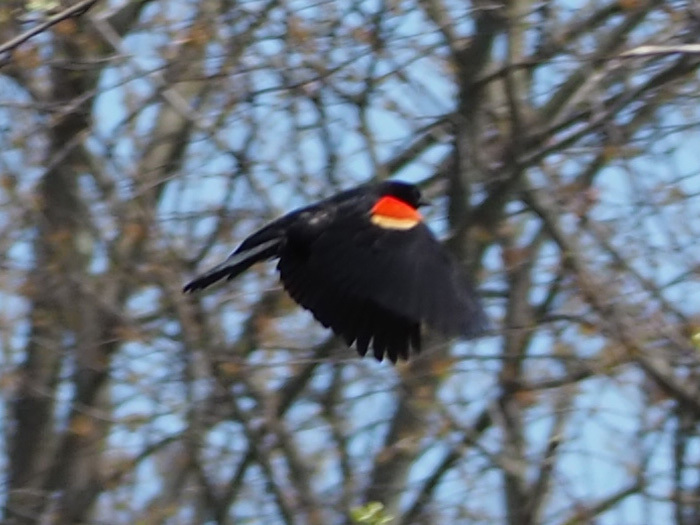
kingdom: Animalia
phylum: Chordata
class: Aves
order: Passeriformes
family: Icteridae
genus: Agelaius
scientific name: Agelaius phoeniceus
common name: Red-winged blackbird
